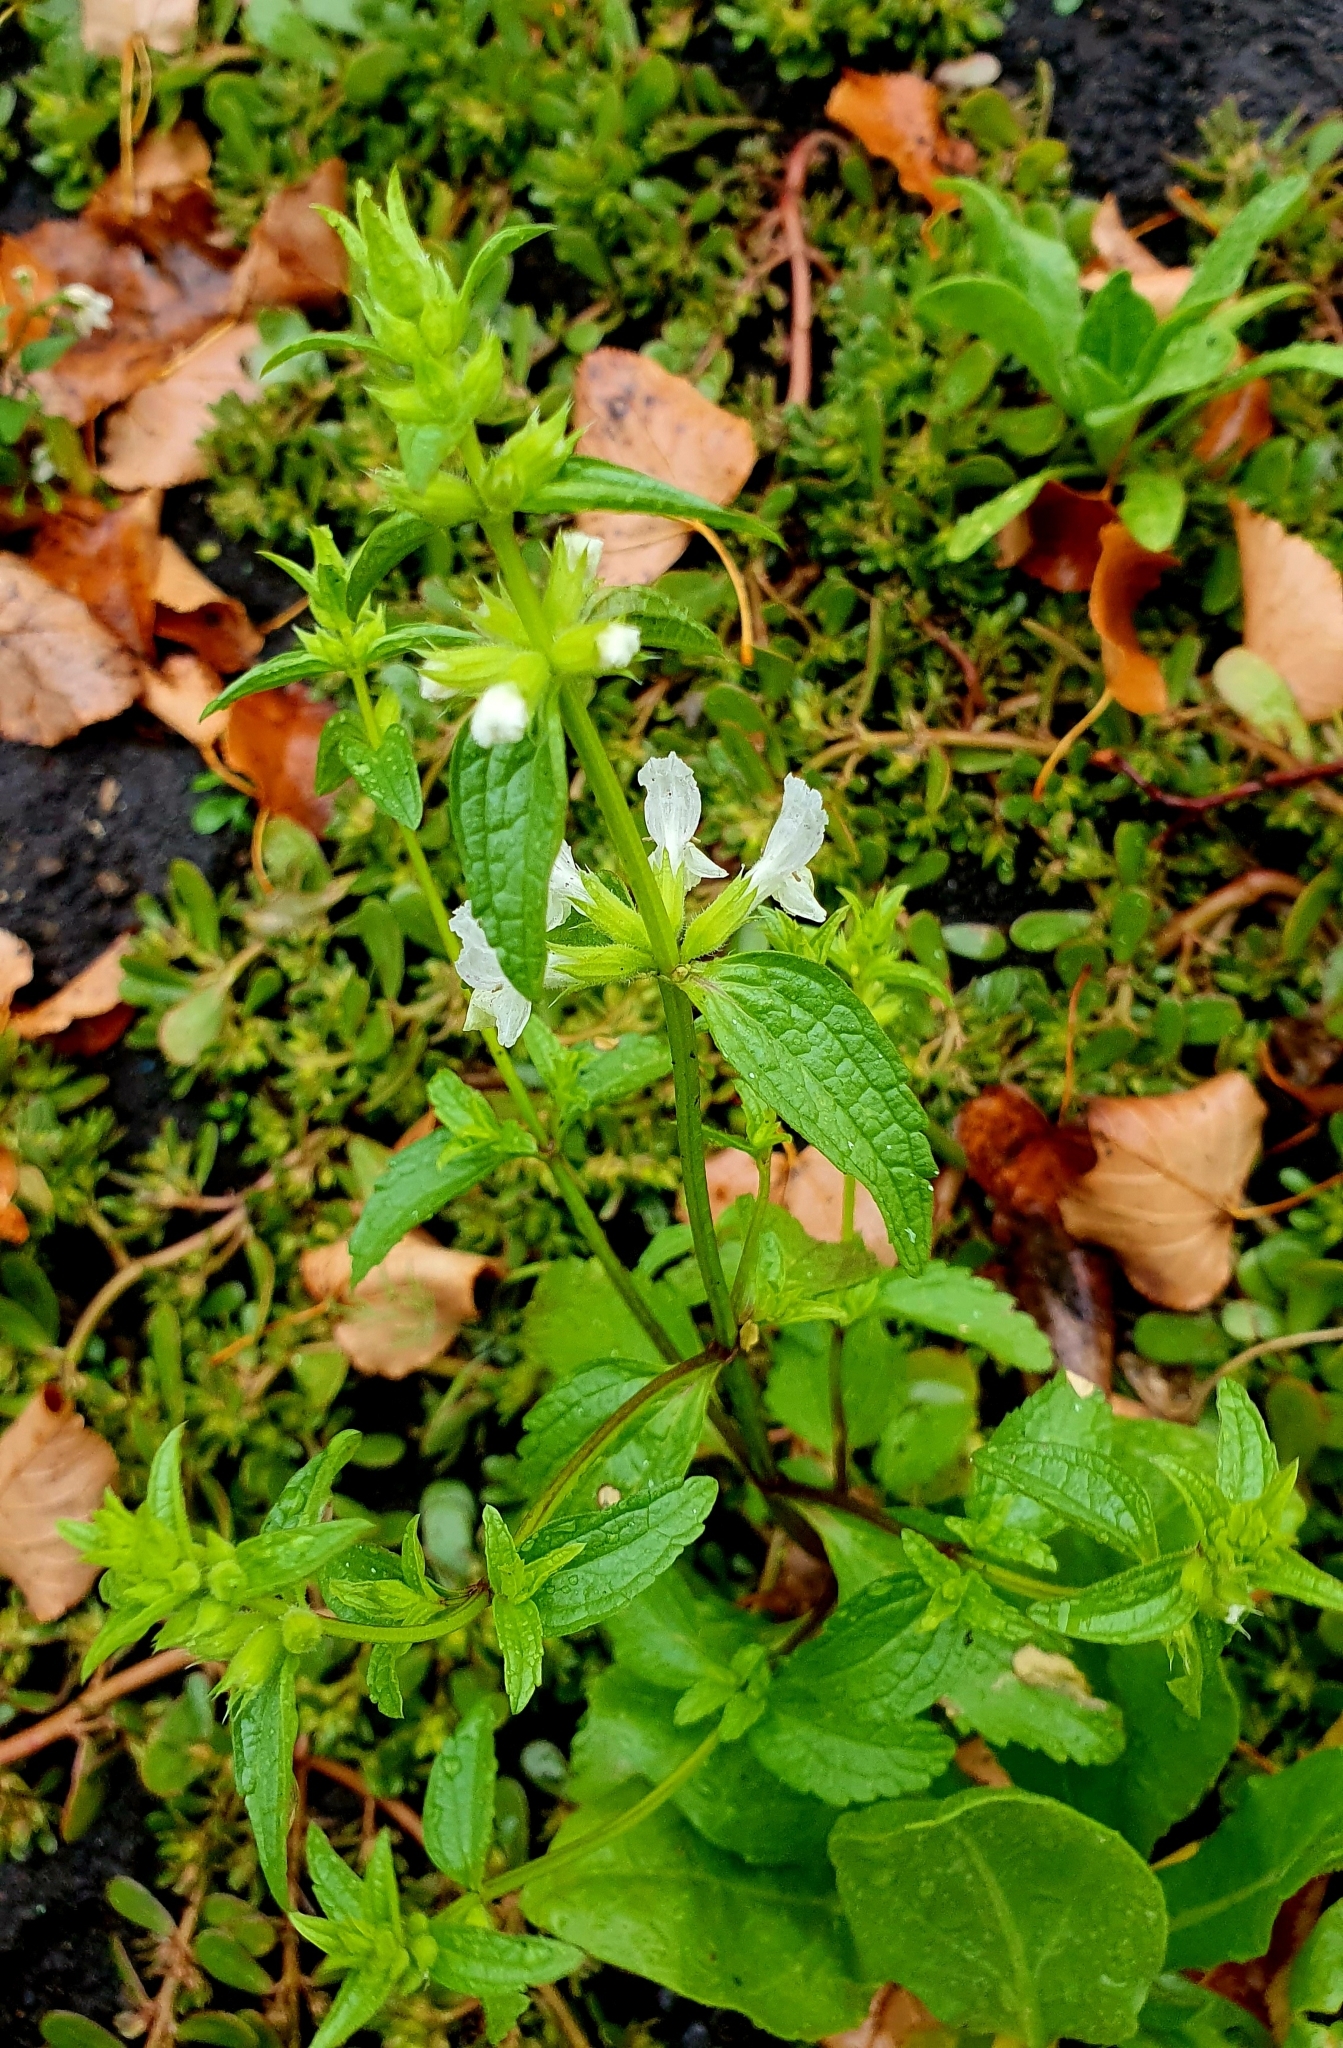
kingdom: Plantae
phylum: Tracheophyta
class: Magnoliopsida
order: Lamiales
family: Lamiaceae
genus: Stachys
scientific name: Stachys annua
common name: Annual yellow-woundwort
